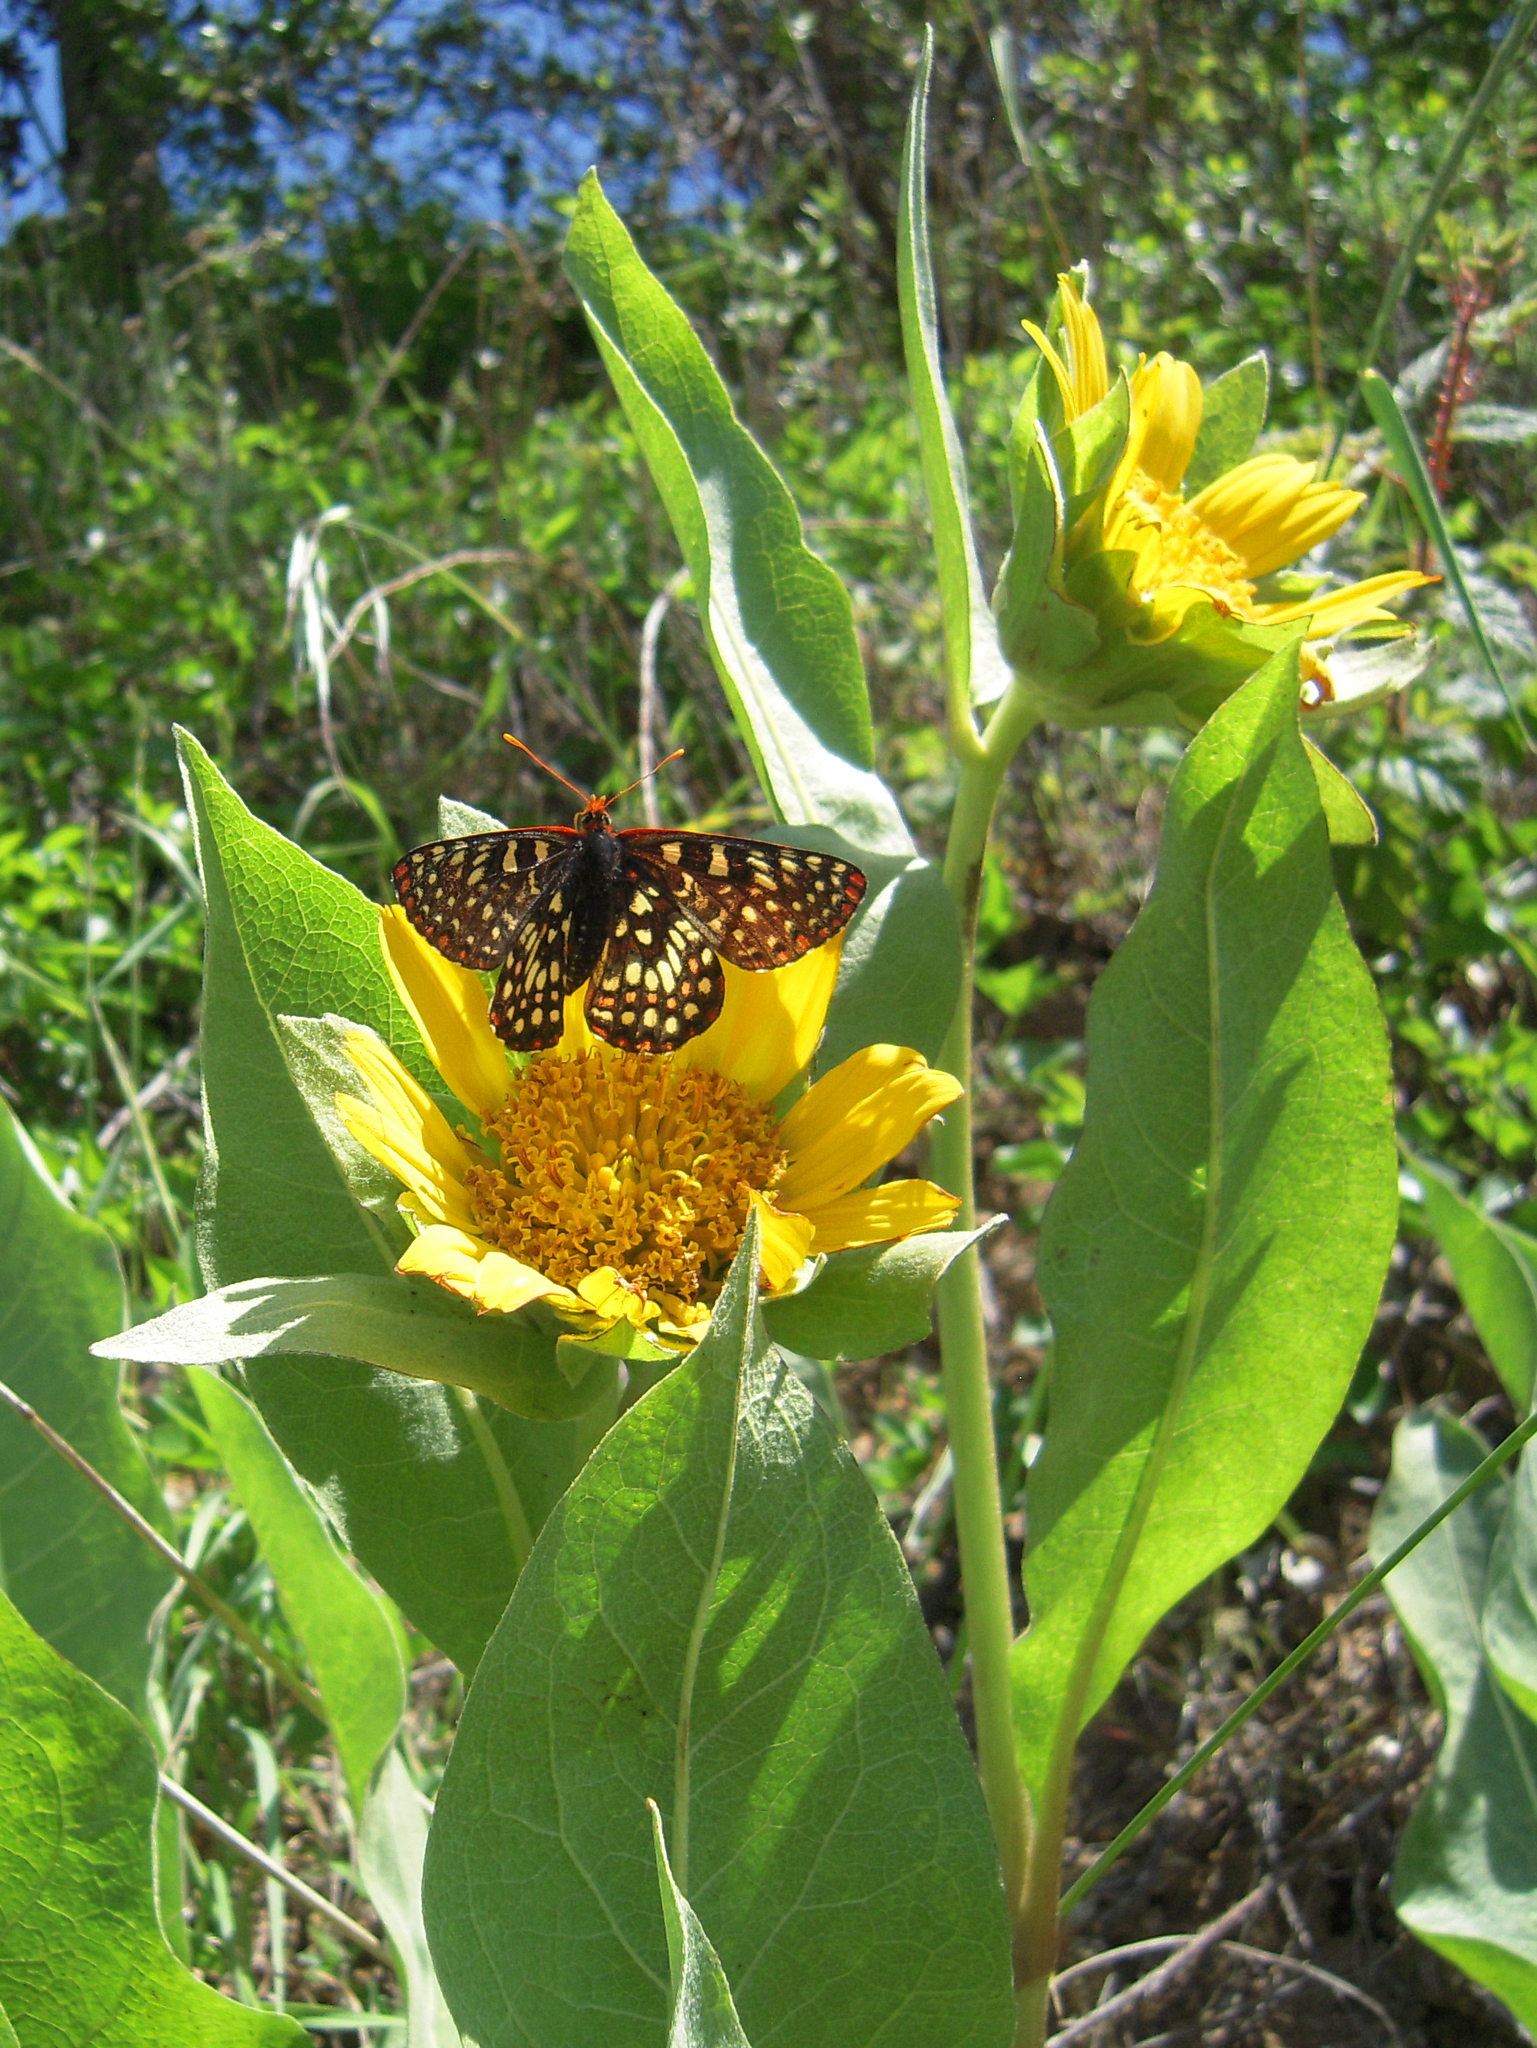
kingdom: Animalia
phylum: Arthropoda
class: Insecta
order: Lepidoptera
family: Nymphalidae
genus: Occidryas
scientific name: Occidryas chalcedona
